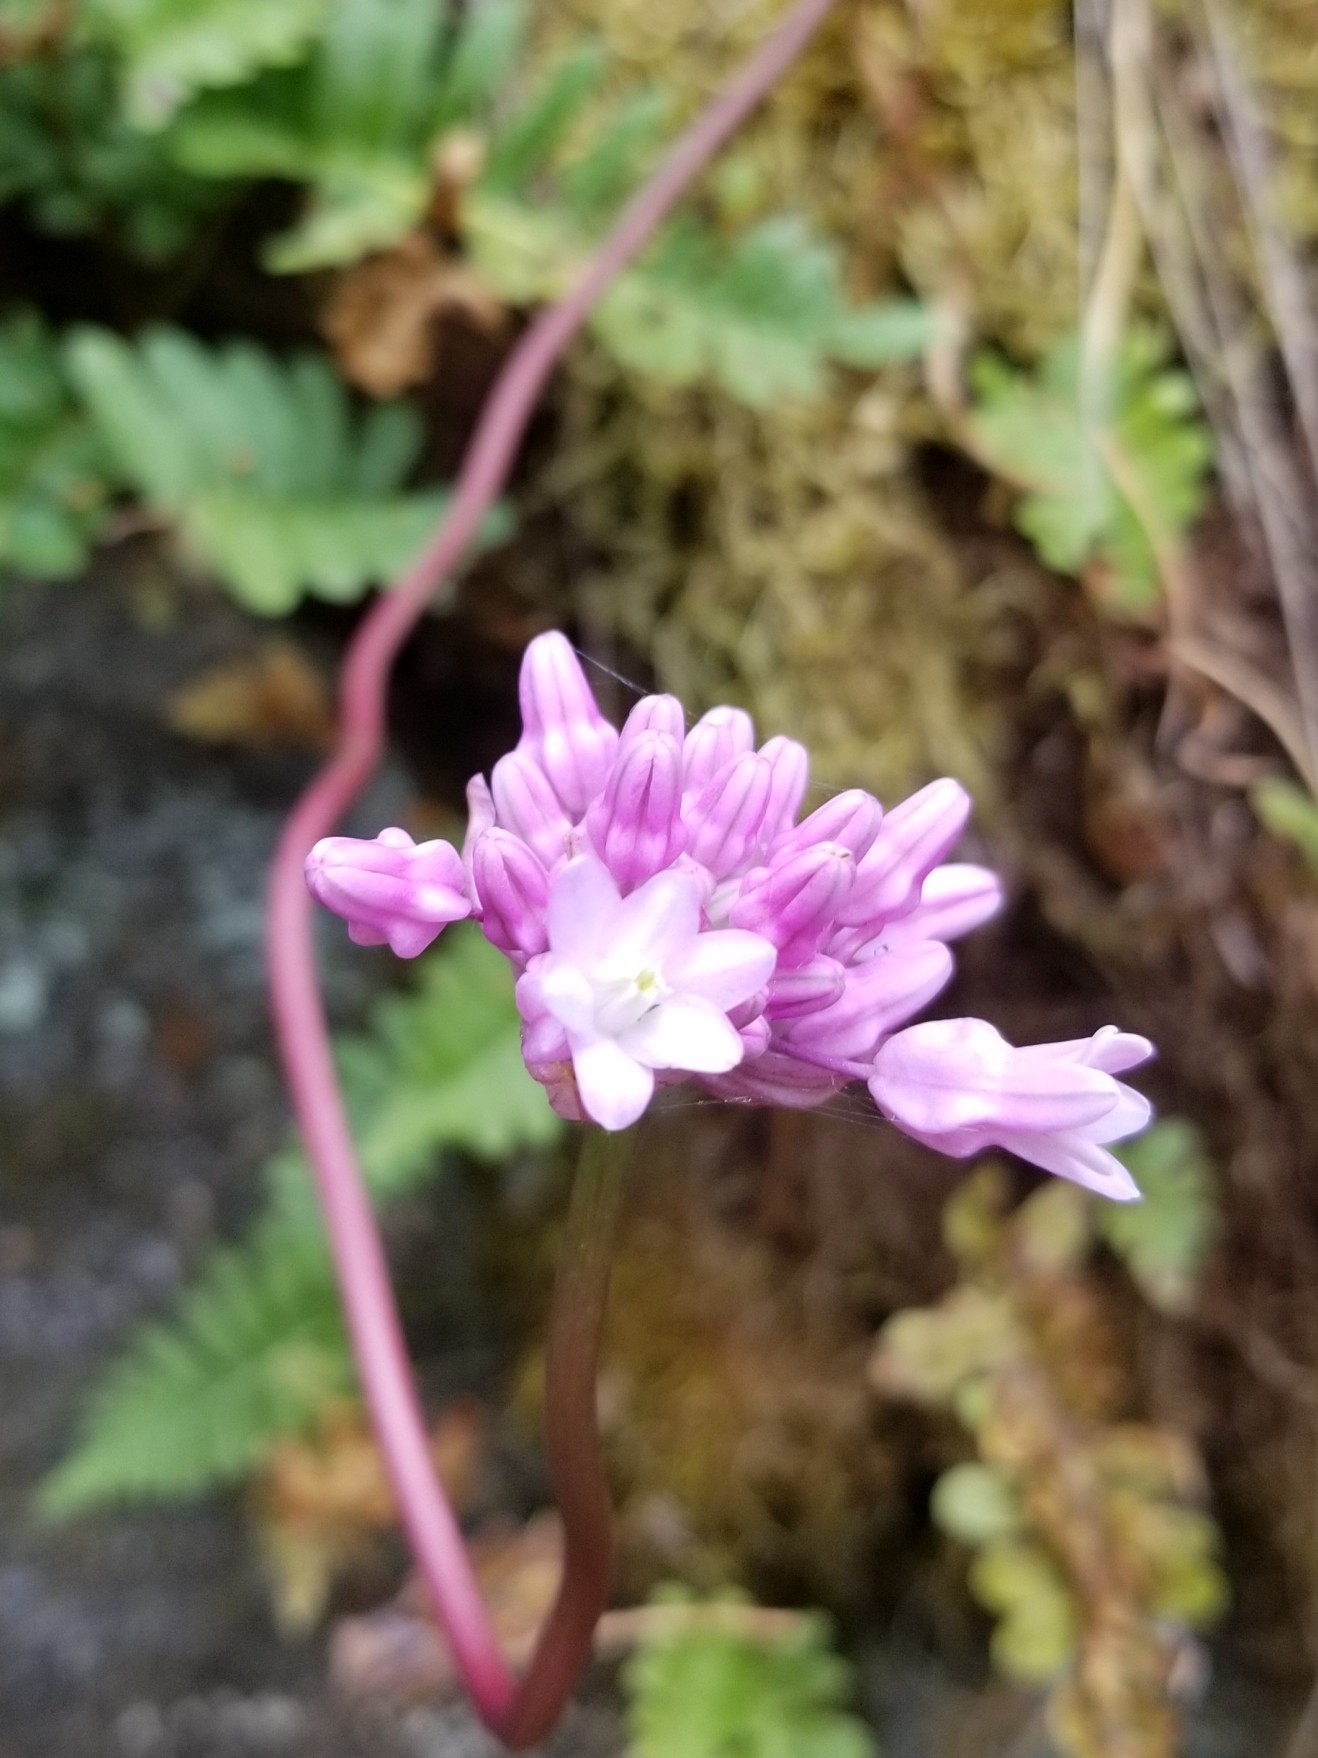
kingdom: Plantae
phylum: Tracheophyta
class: Liliopsida
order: Asparagales
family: Asparagaceae
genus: Dichelostemma
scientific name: Dichelostemma volubile
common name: Trining brodiaea
